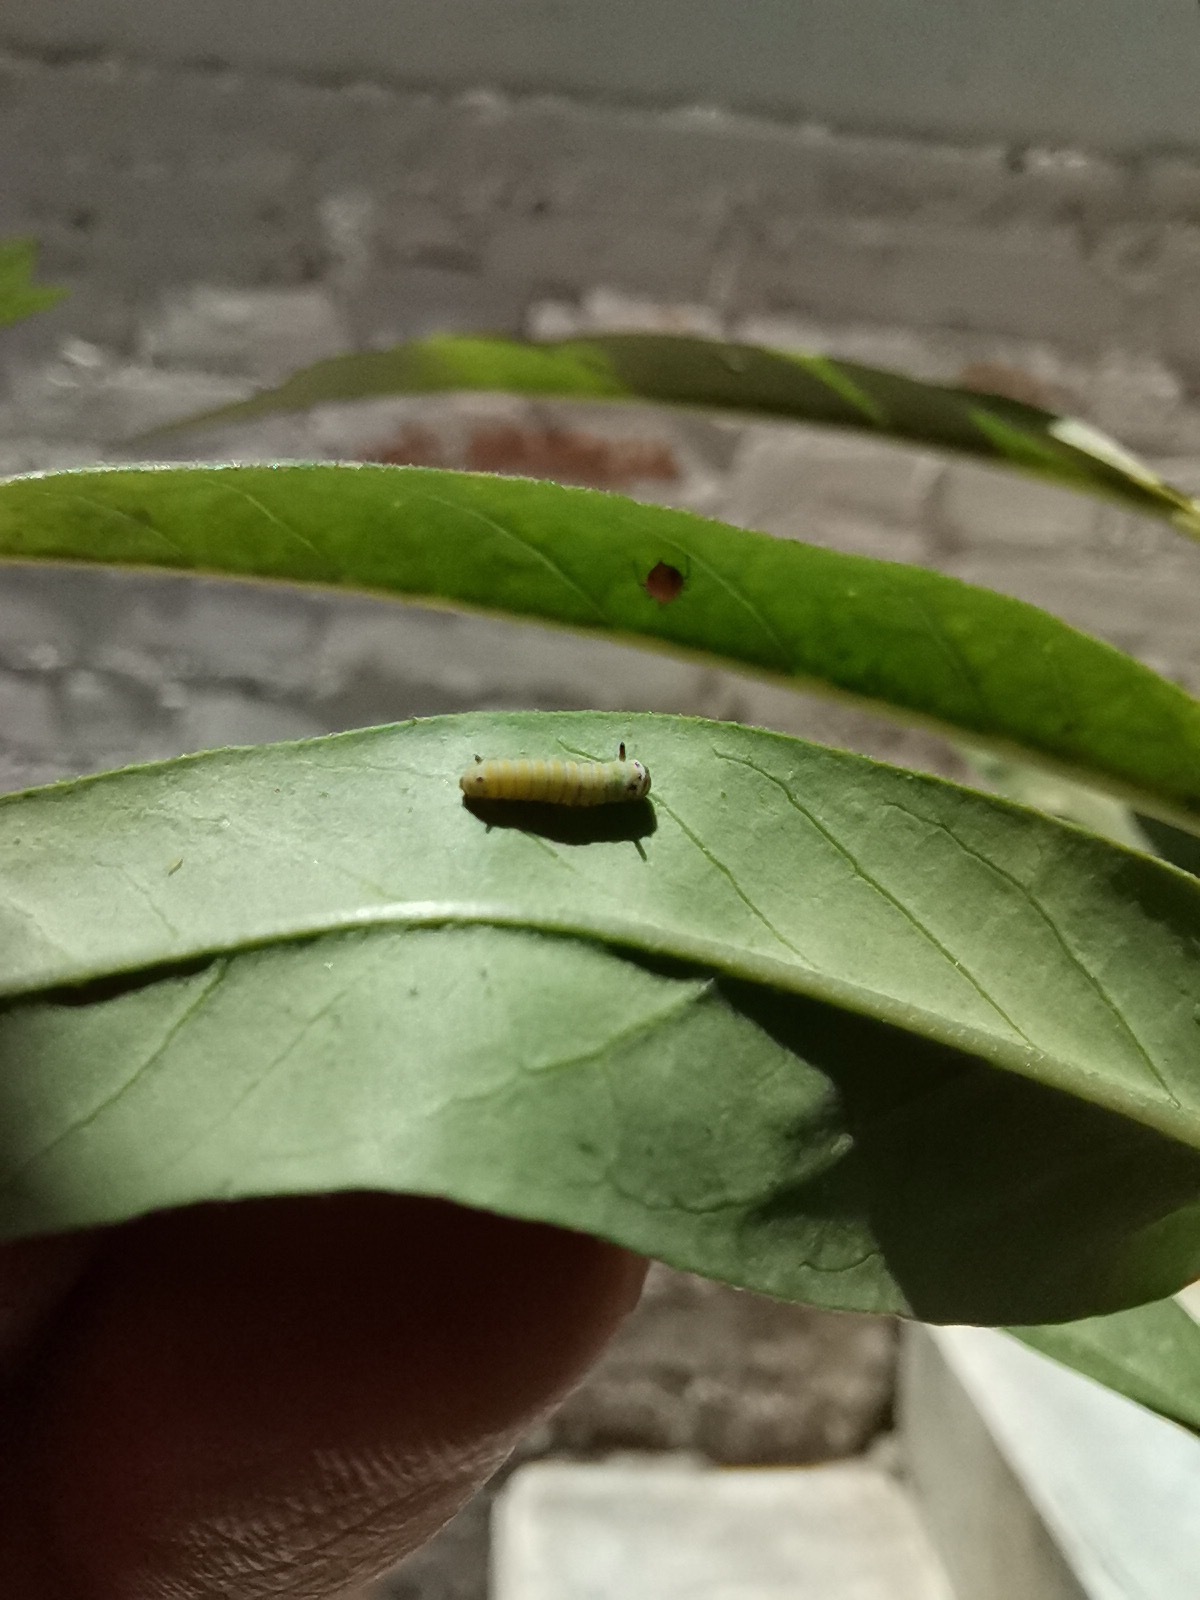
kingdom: Animalia
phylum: Arthropoda
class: Insecta
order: Lepidoptera
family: Nymphalidae
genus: Danaus
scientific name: Danaus plexippus
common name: Monarch
